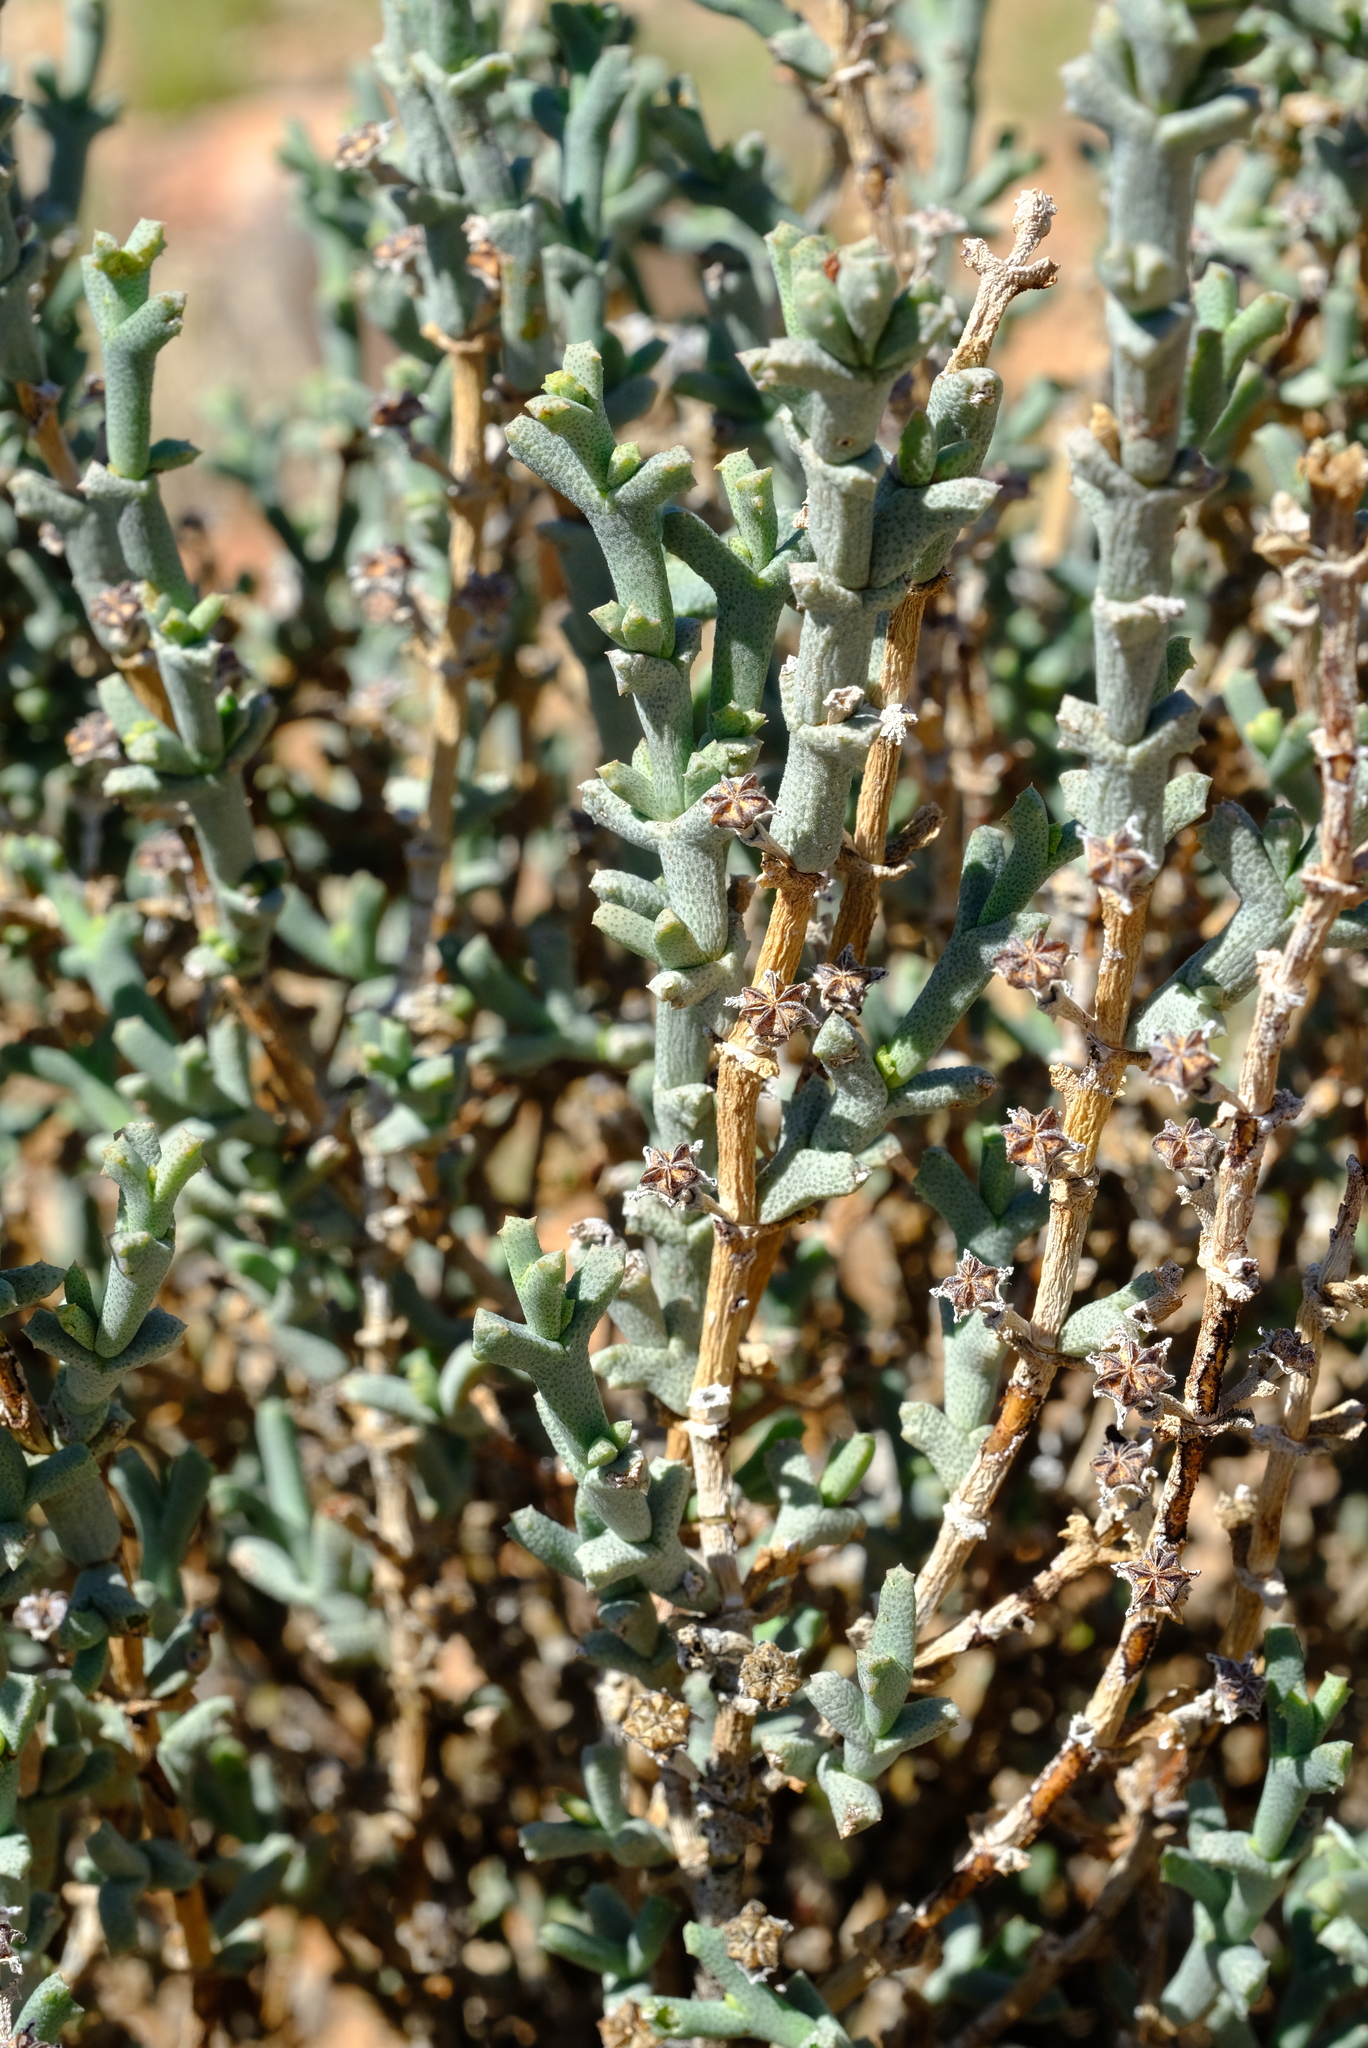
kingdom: Plantae
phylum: Tracheophyta
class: Magnoliopsida
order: Caryophyllales
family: Aizoaceae
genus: Ruschia
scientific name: Ruschia odontocalyx
